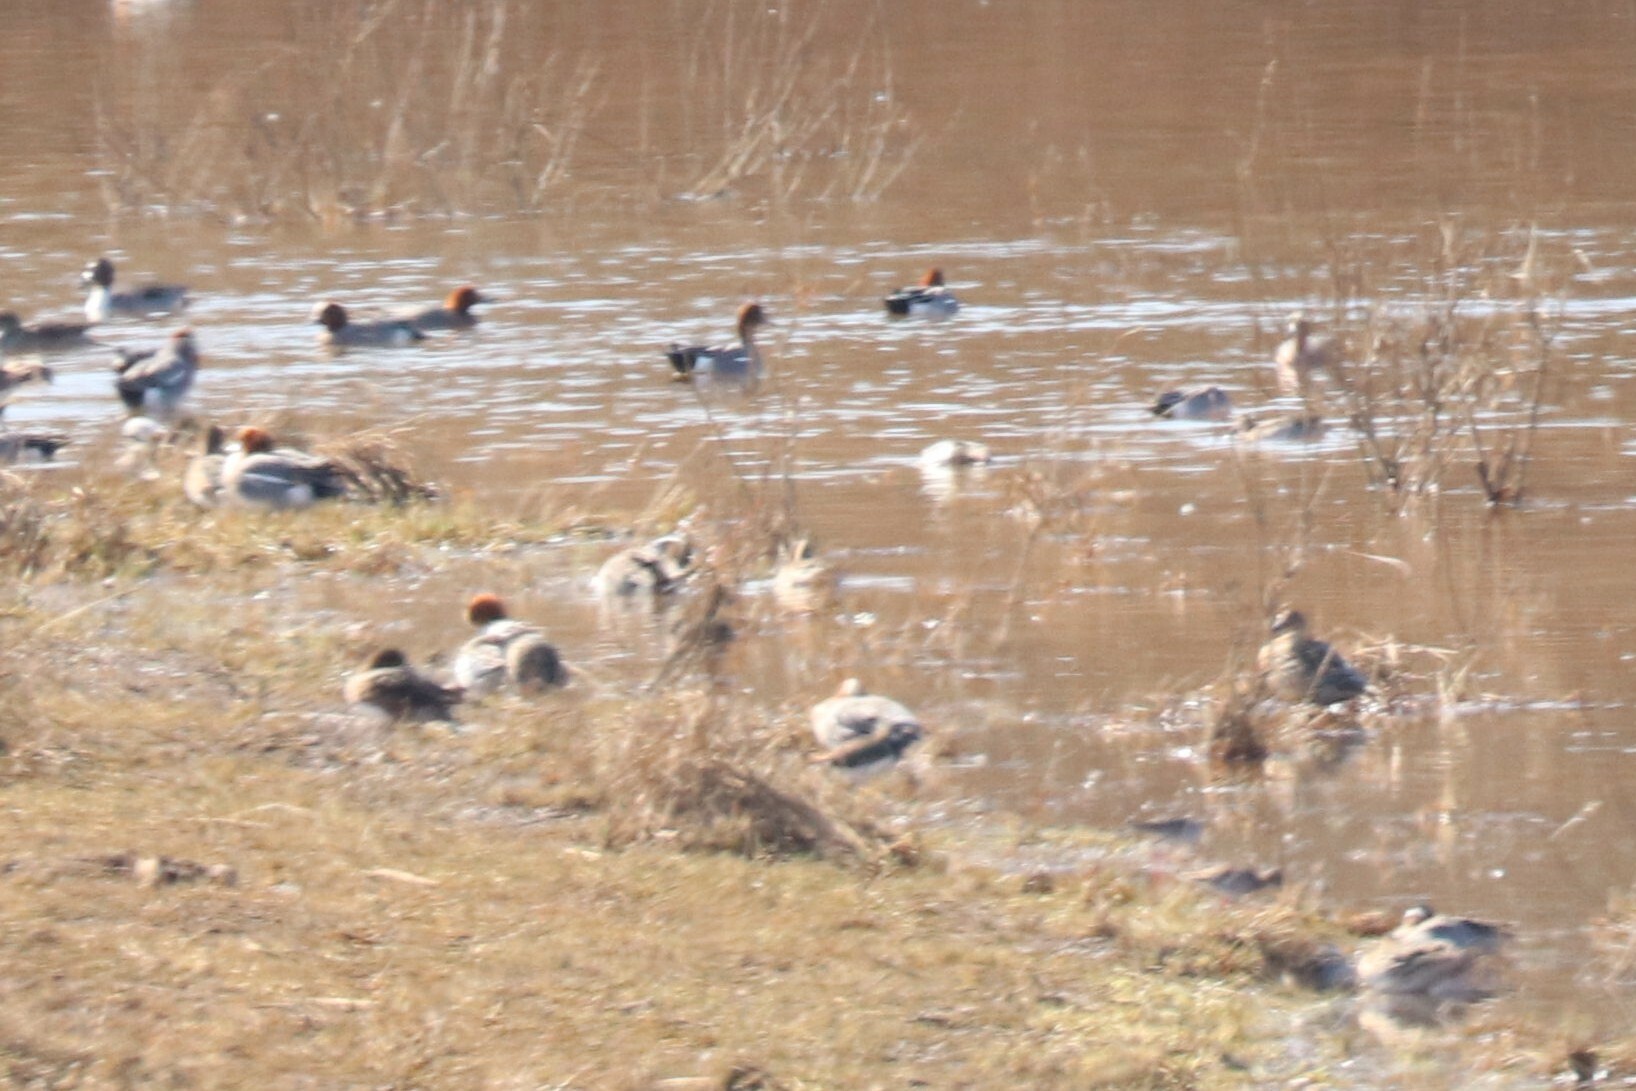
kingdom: Animalia
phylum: Chordata
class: Aves
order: Anseriformes
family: Anatidae
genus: Mareca
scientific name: Mareca penelope
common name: Eurasian wigeon
